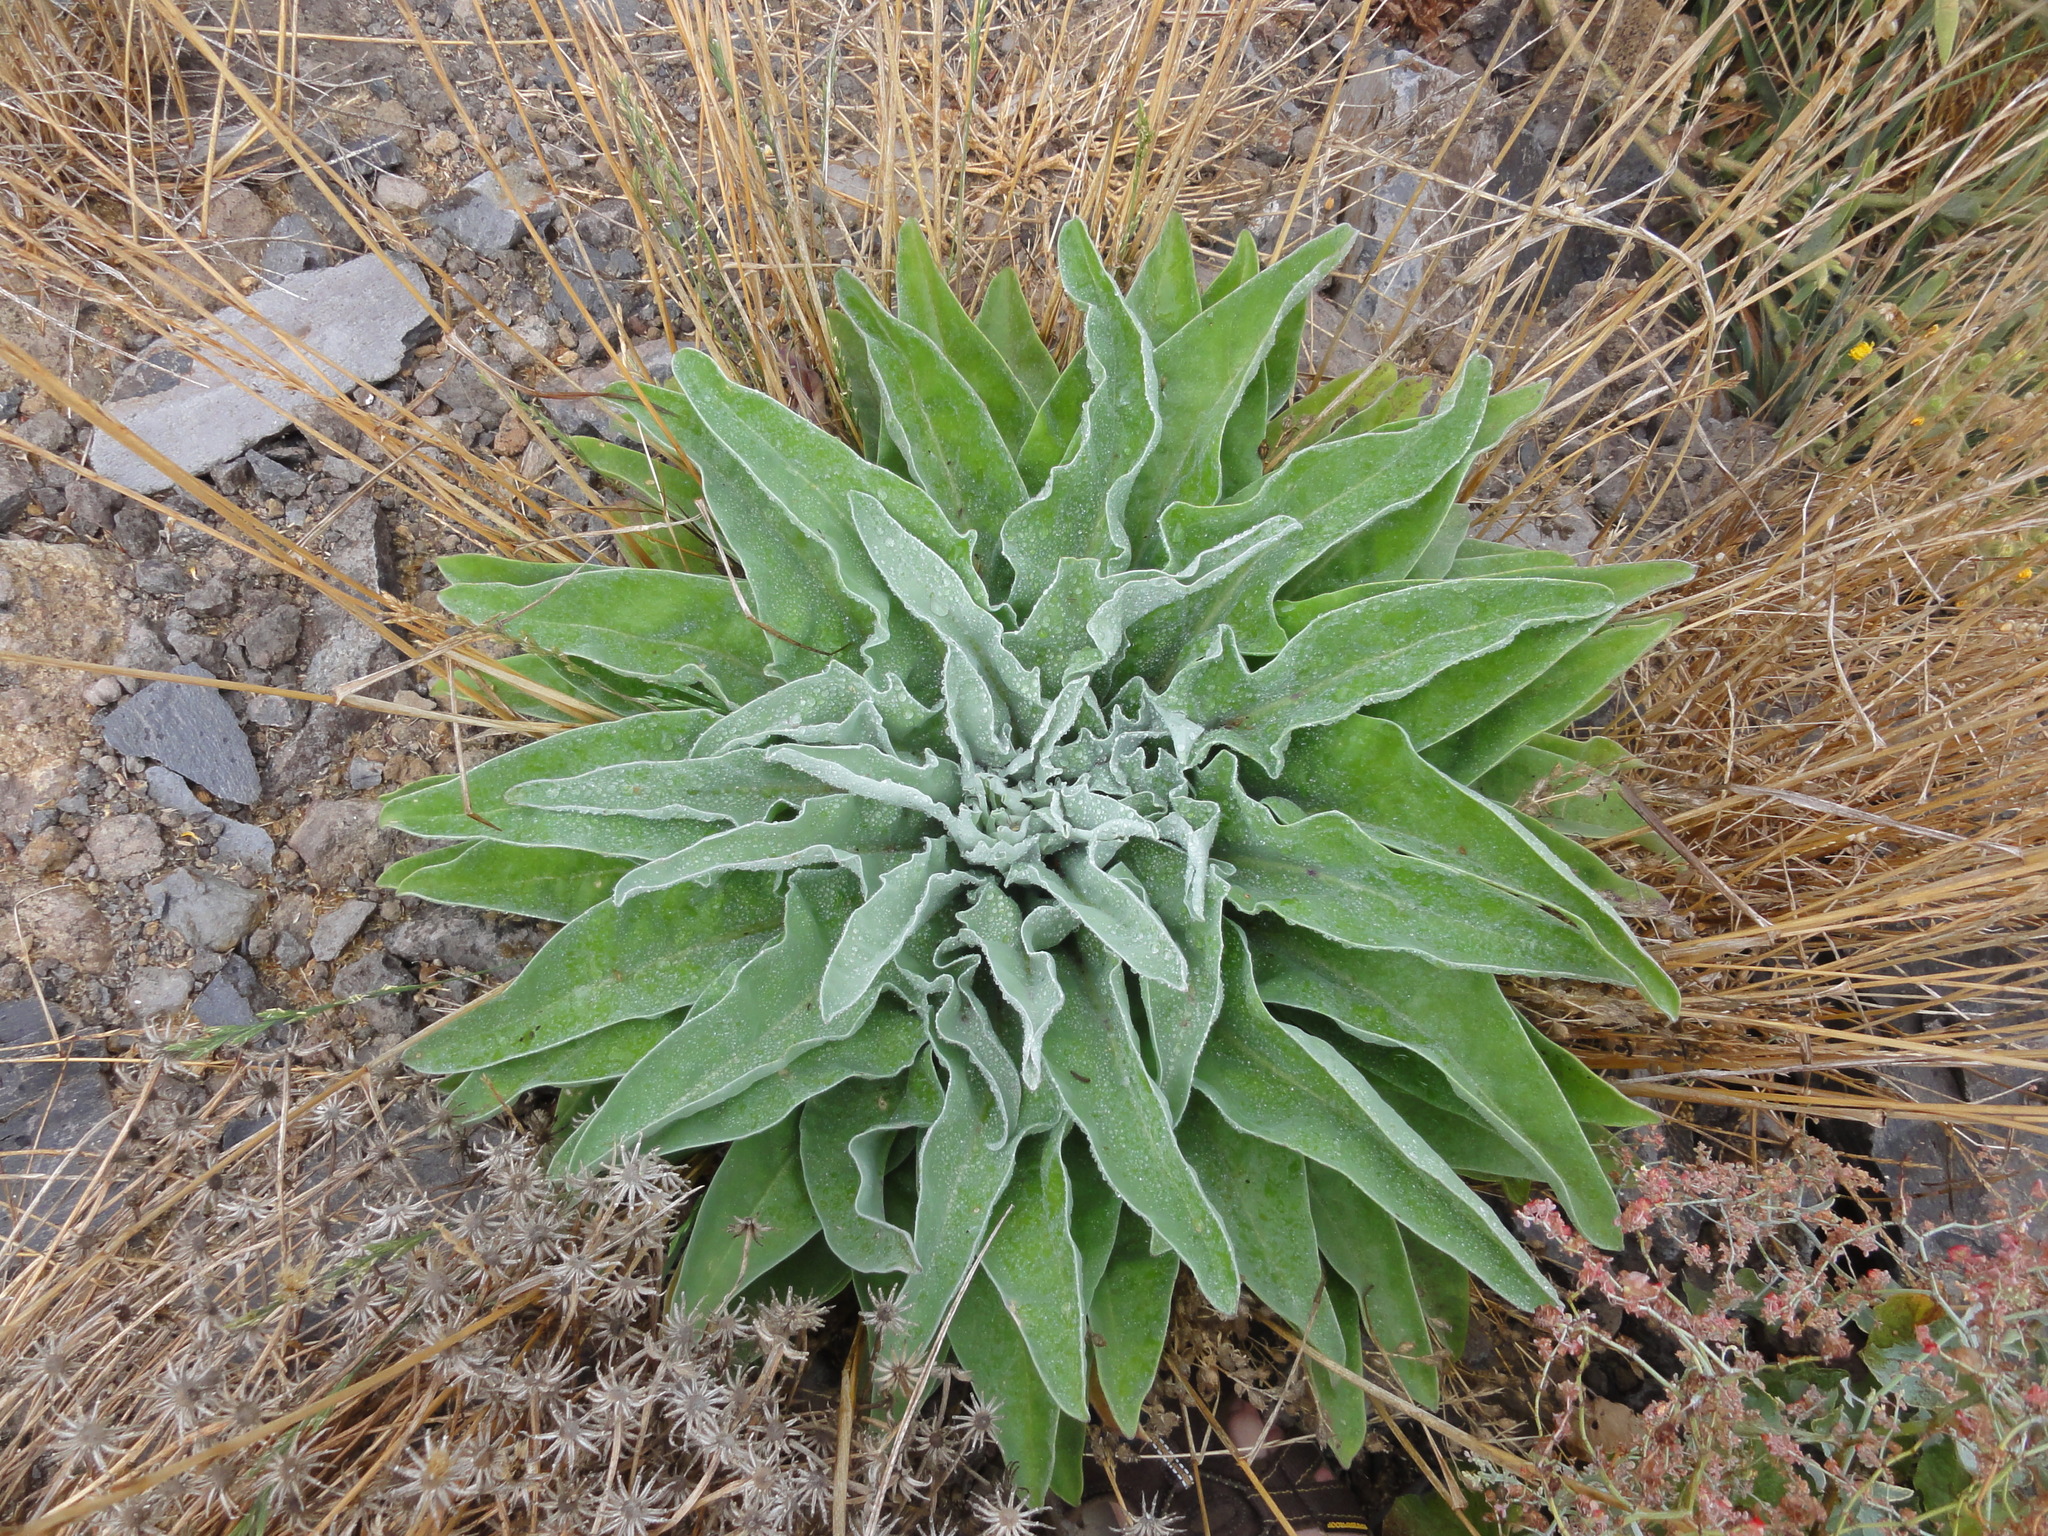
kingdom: Plantae
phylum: Tracheophyta
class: Magnoliopsida
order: Brassicales
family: Brassicaceae
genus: Matthiola
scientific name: Matthiola maderensis
